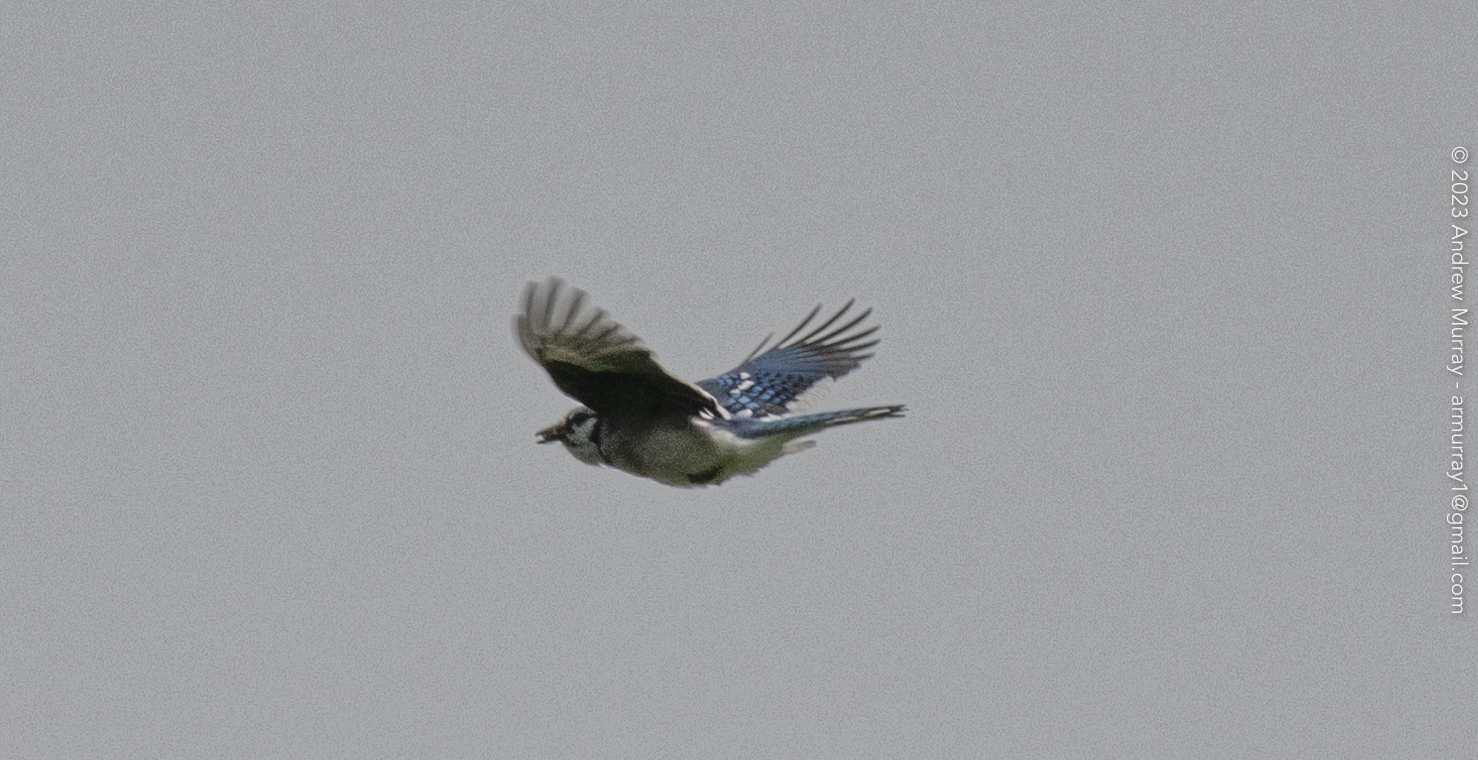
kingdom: Animalia
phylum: Chordata
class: Aves
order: Passeriformes
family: Corvidae
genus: Cyanocitta
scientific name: Cyanocitta cristata
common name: Blue jay
